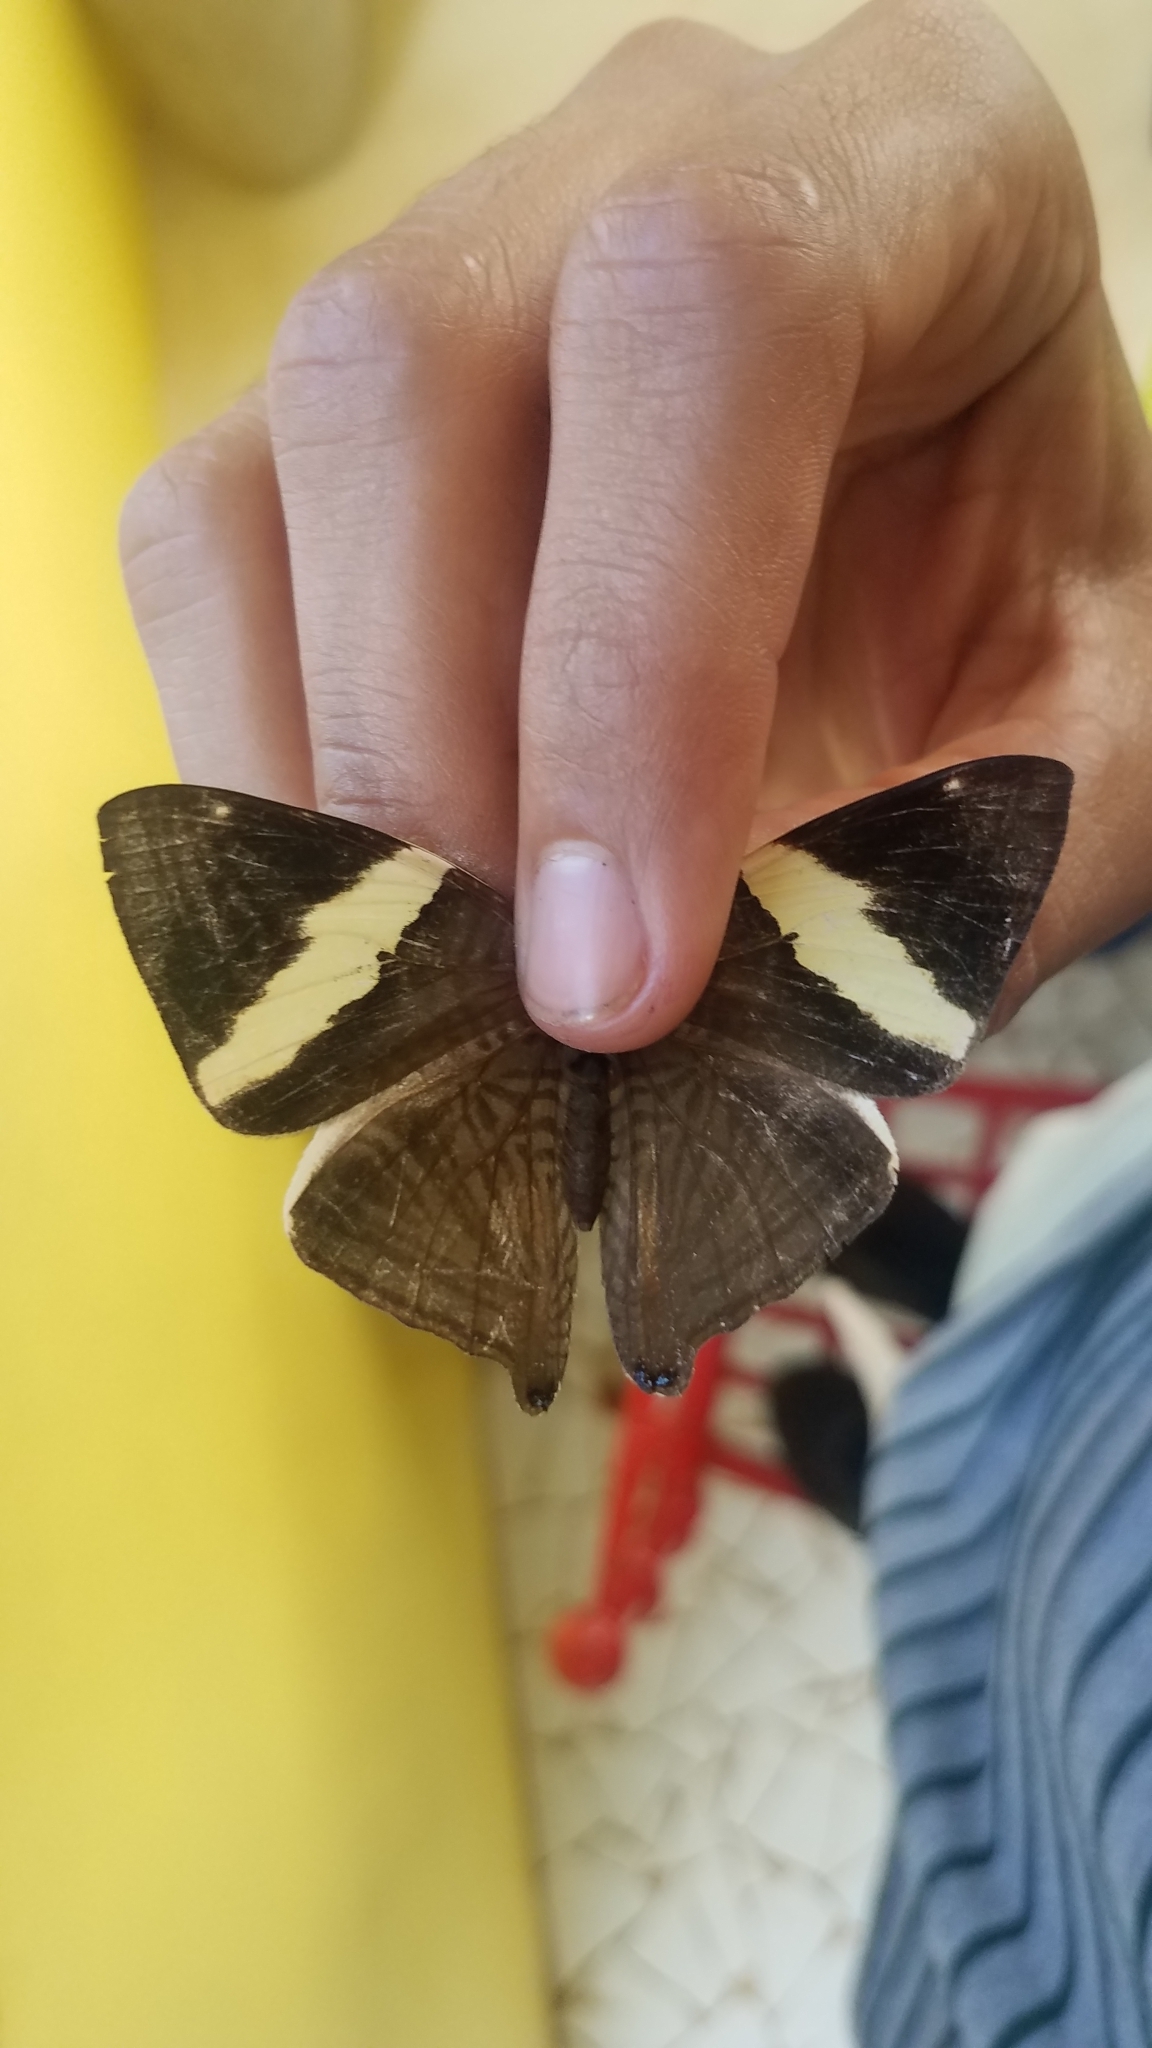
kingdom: Animalia
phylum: Arthropoda
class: Insecta
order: Lepidoptera
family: Nymphalidae
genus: Colobura
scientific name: Colobura dirce
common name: Dirce beauty
